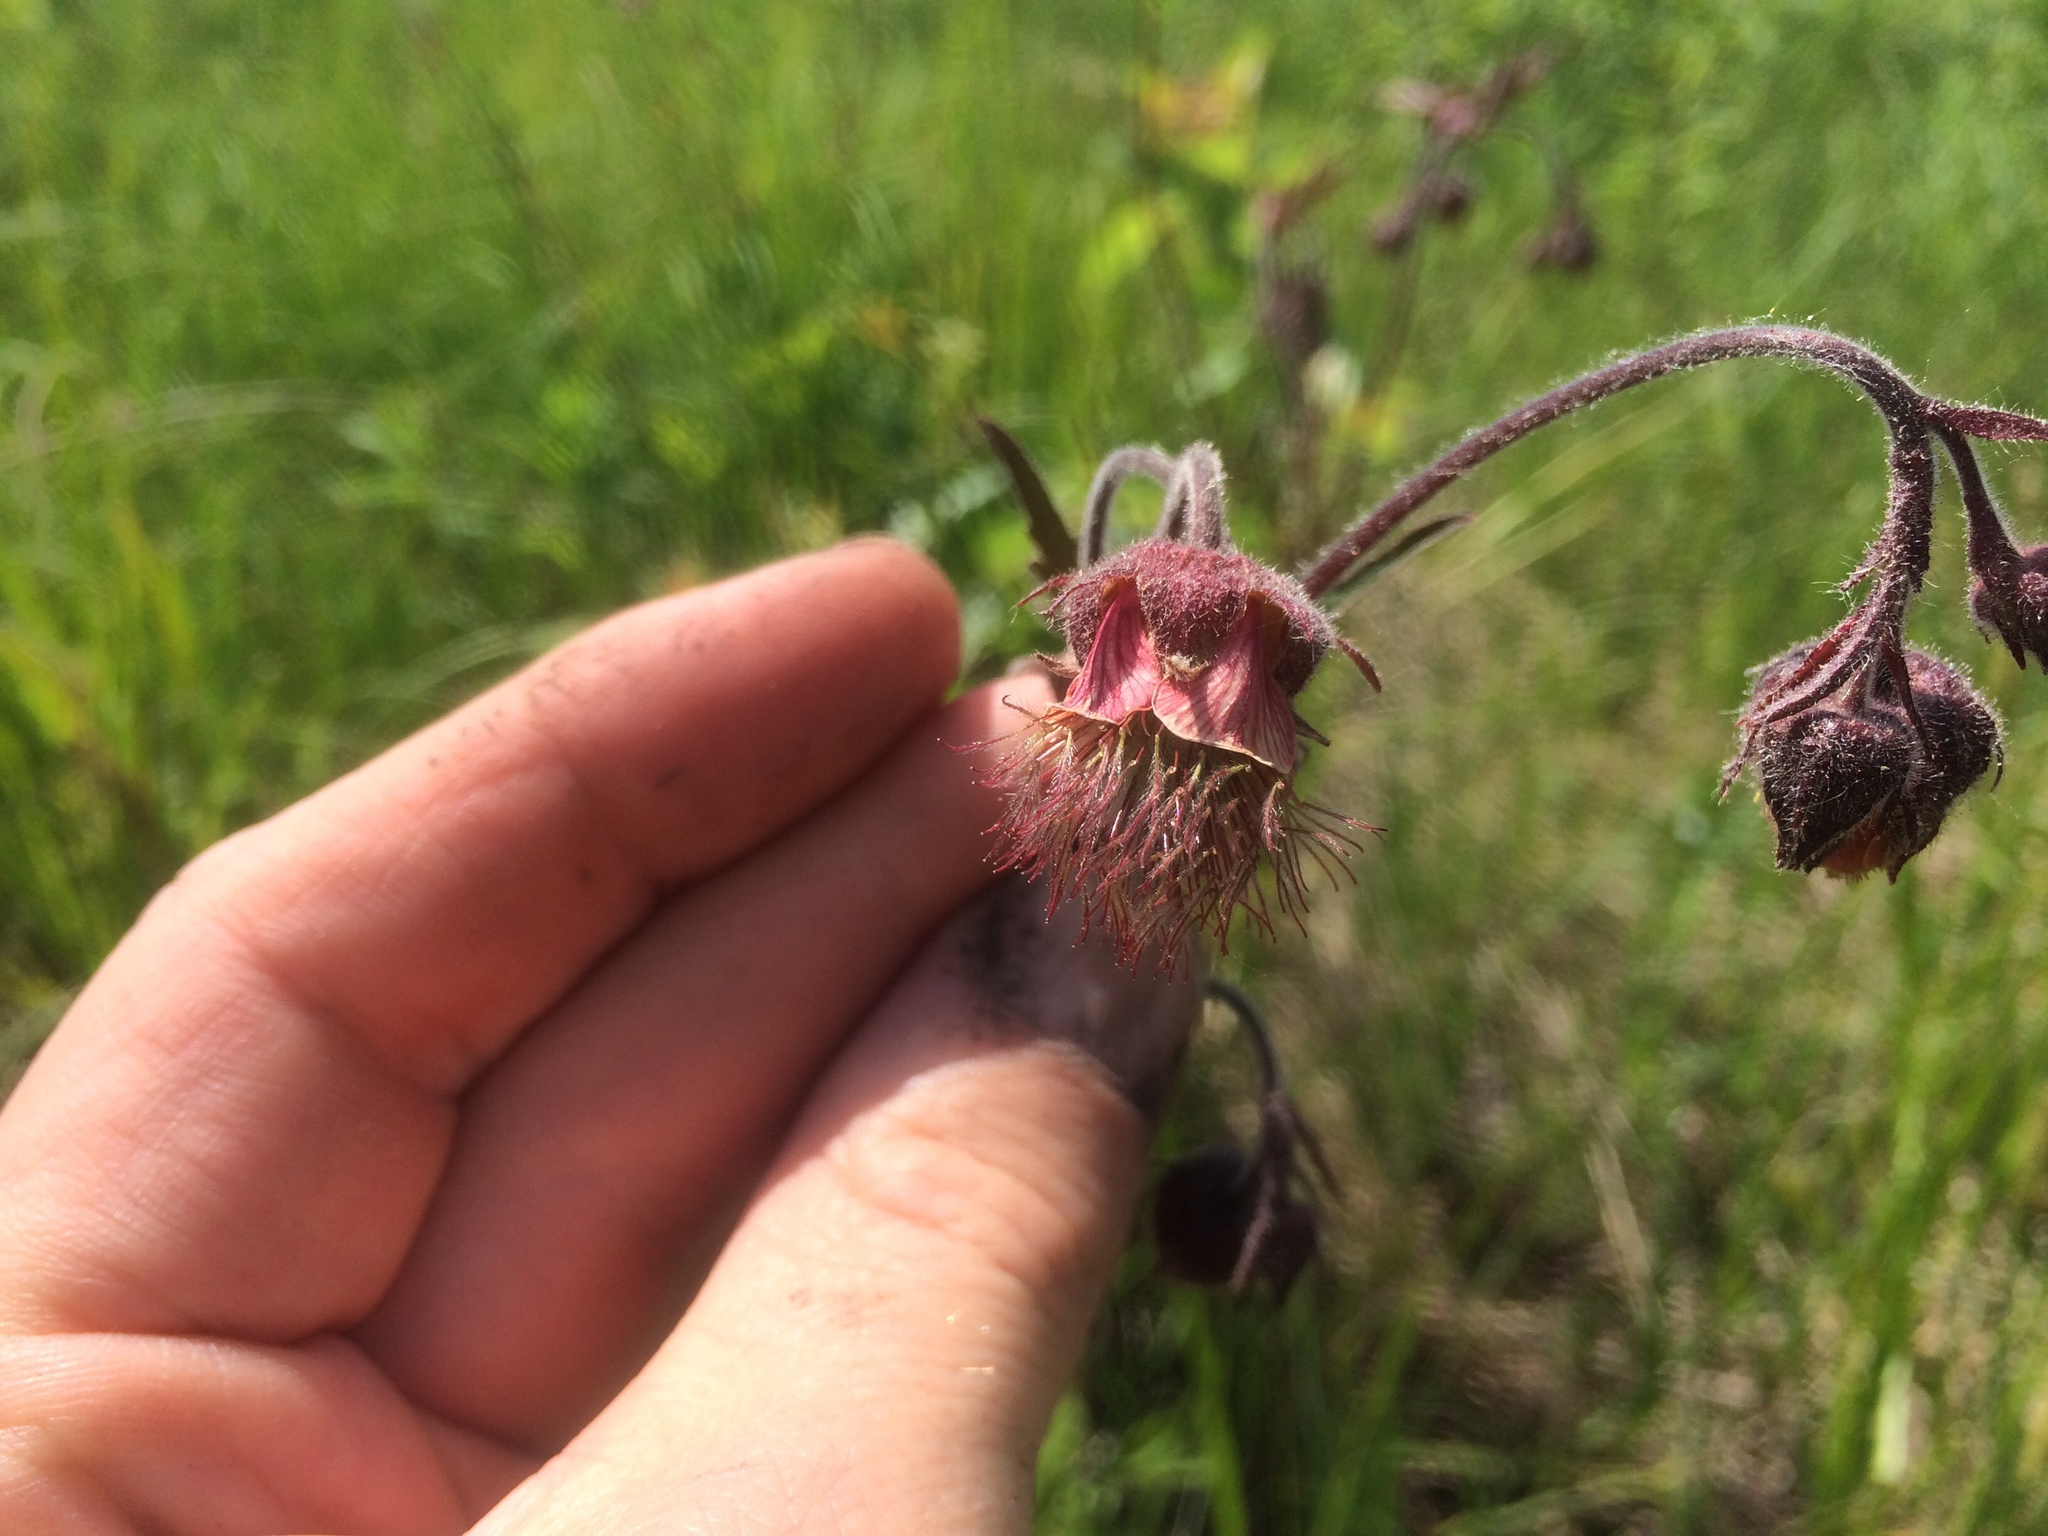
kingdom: Plantae
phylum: Tracheophyta
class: Magnoliopsida
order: Rosales
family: Rosaceae
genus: Geum
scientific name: Geum rivale
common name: Water avens
